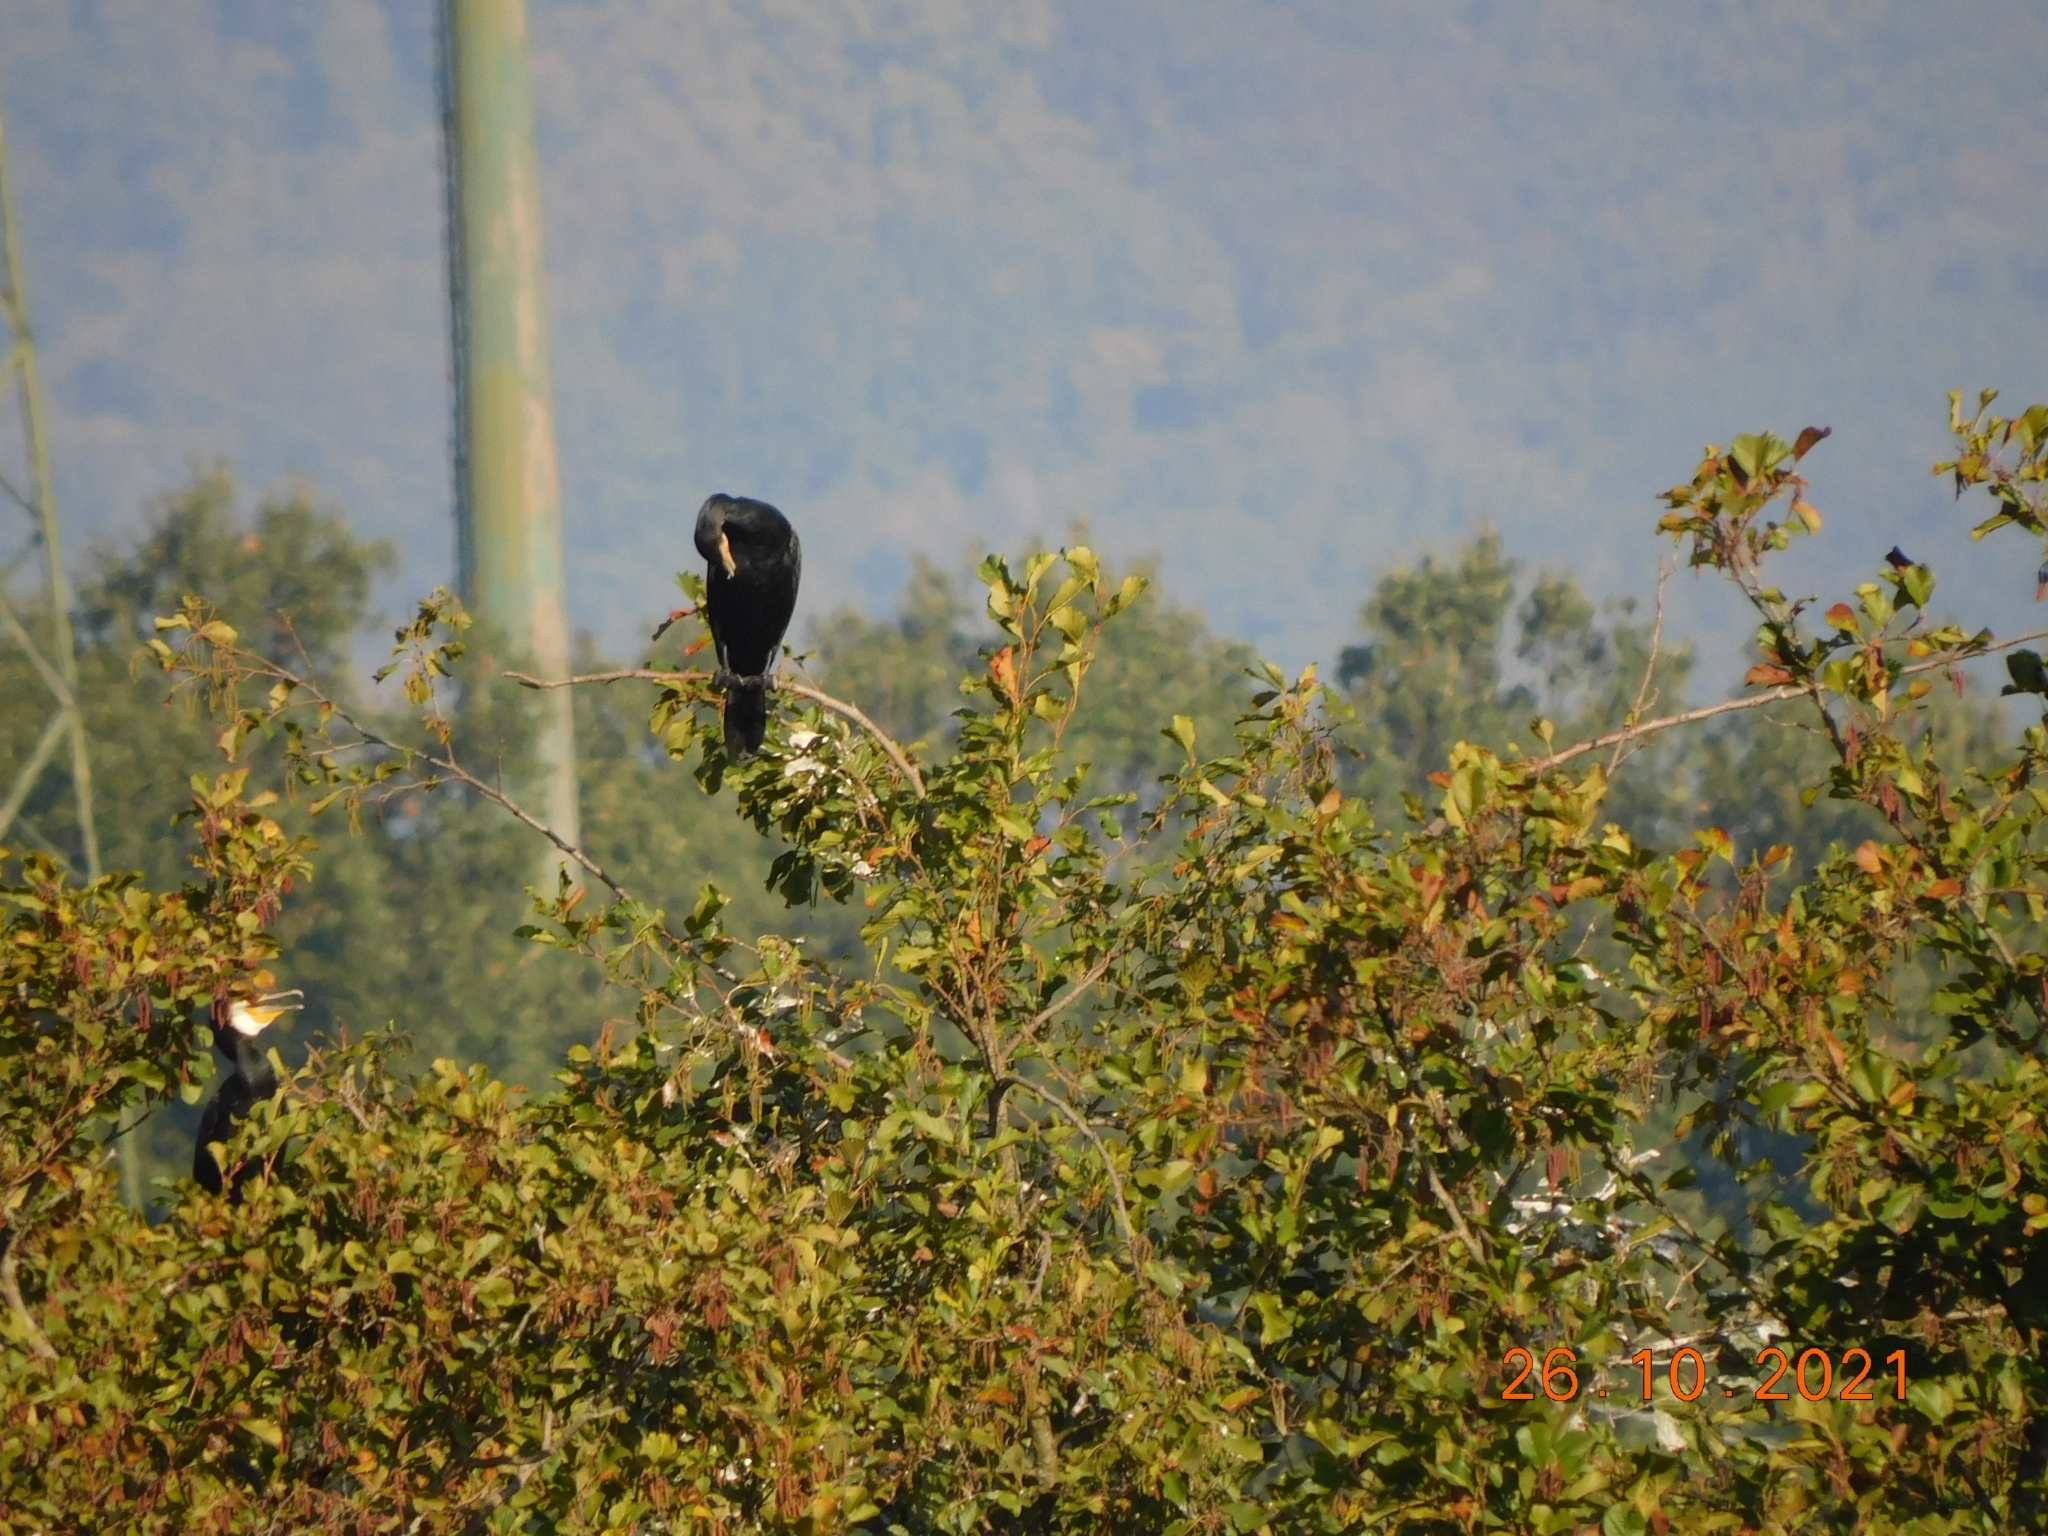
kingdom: Animalia
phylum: Chordata
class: Aves
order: Suliformes
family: Phalacrocoracidae
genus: Phalacrocorax
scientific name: Phalacrocorax carbo
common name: Great cormorant
